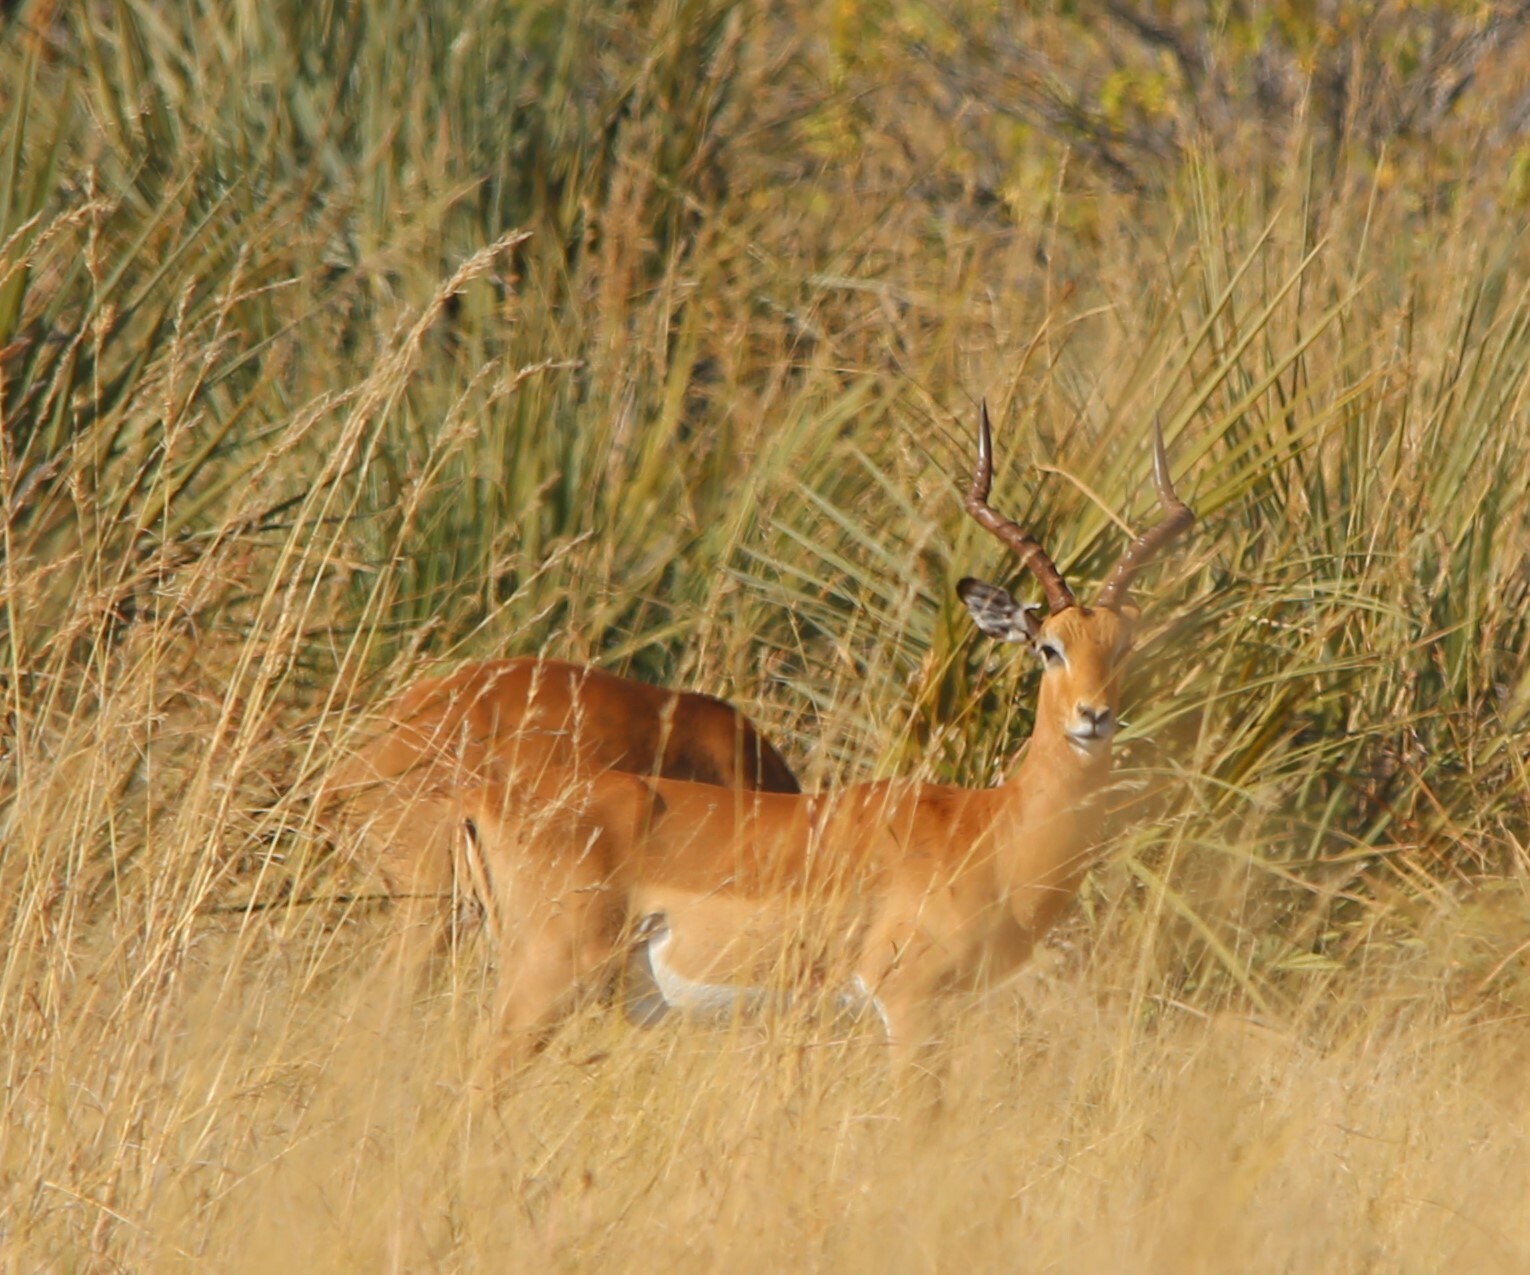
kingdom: Animalia
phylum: Chordata
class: Mammalia
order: Artiodactyla
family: Bovidae
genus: Aepyceros
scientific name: Aepyceros melampus
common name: Impala
